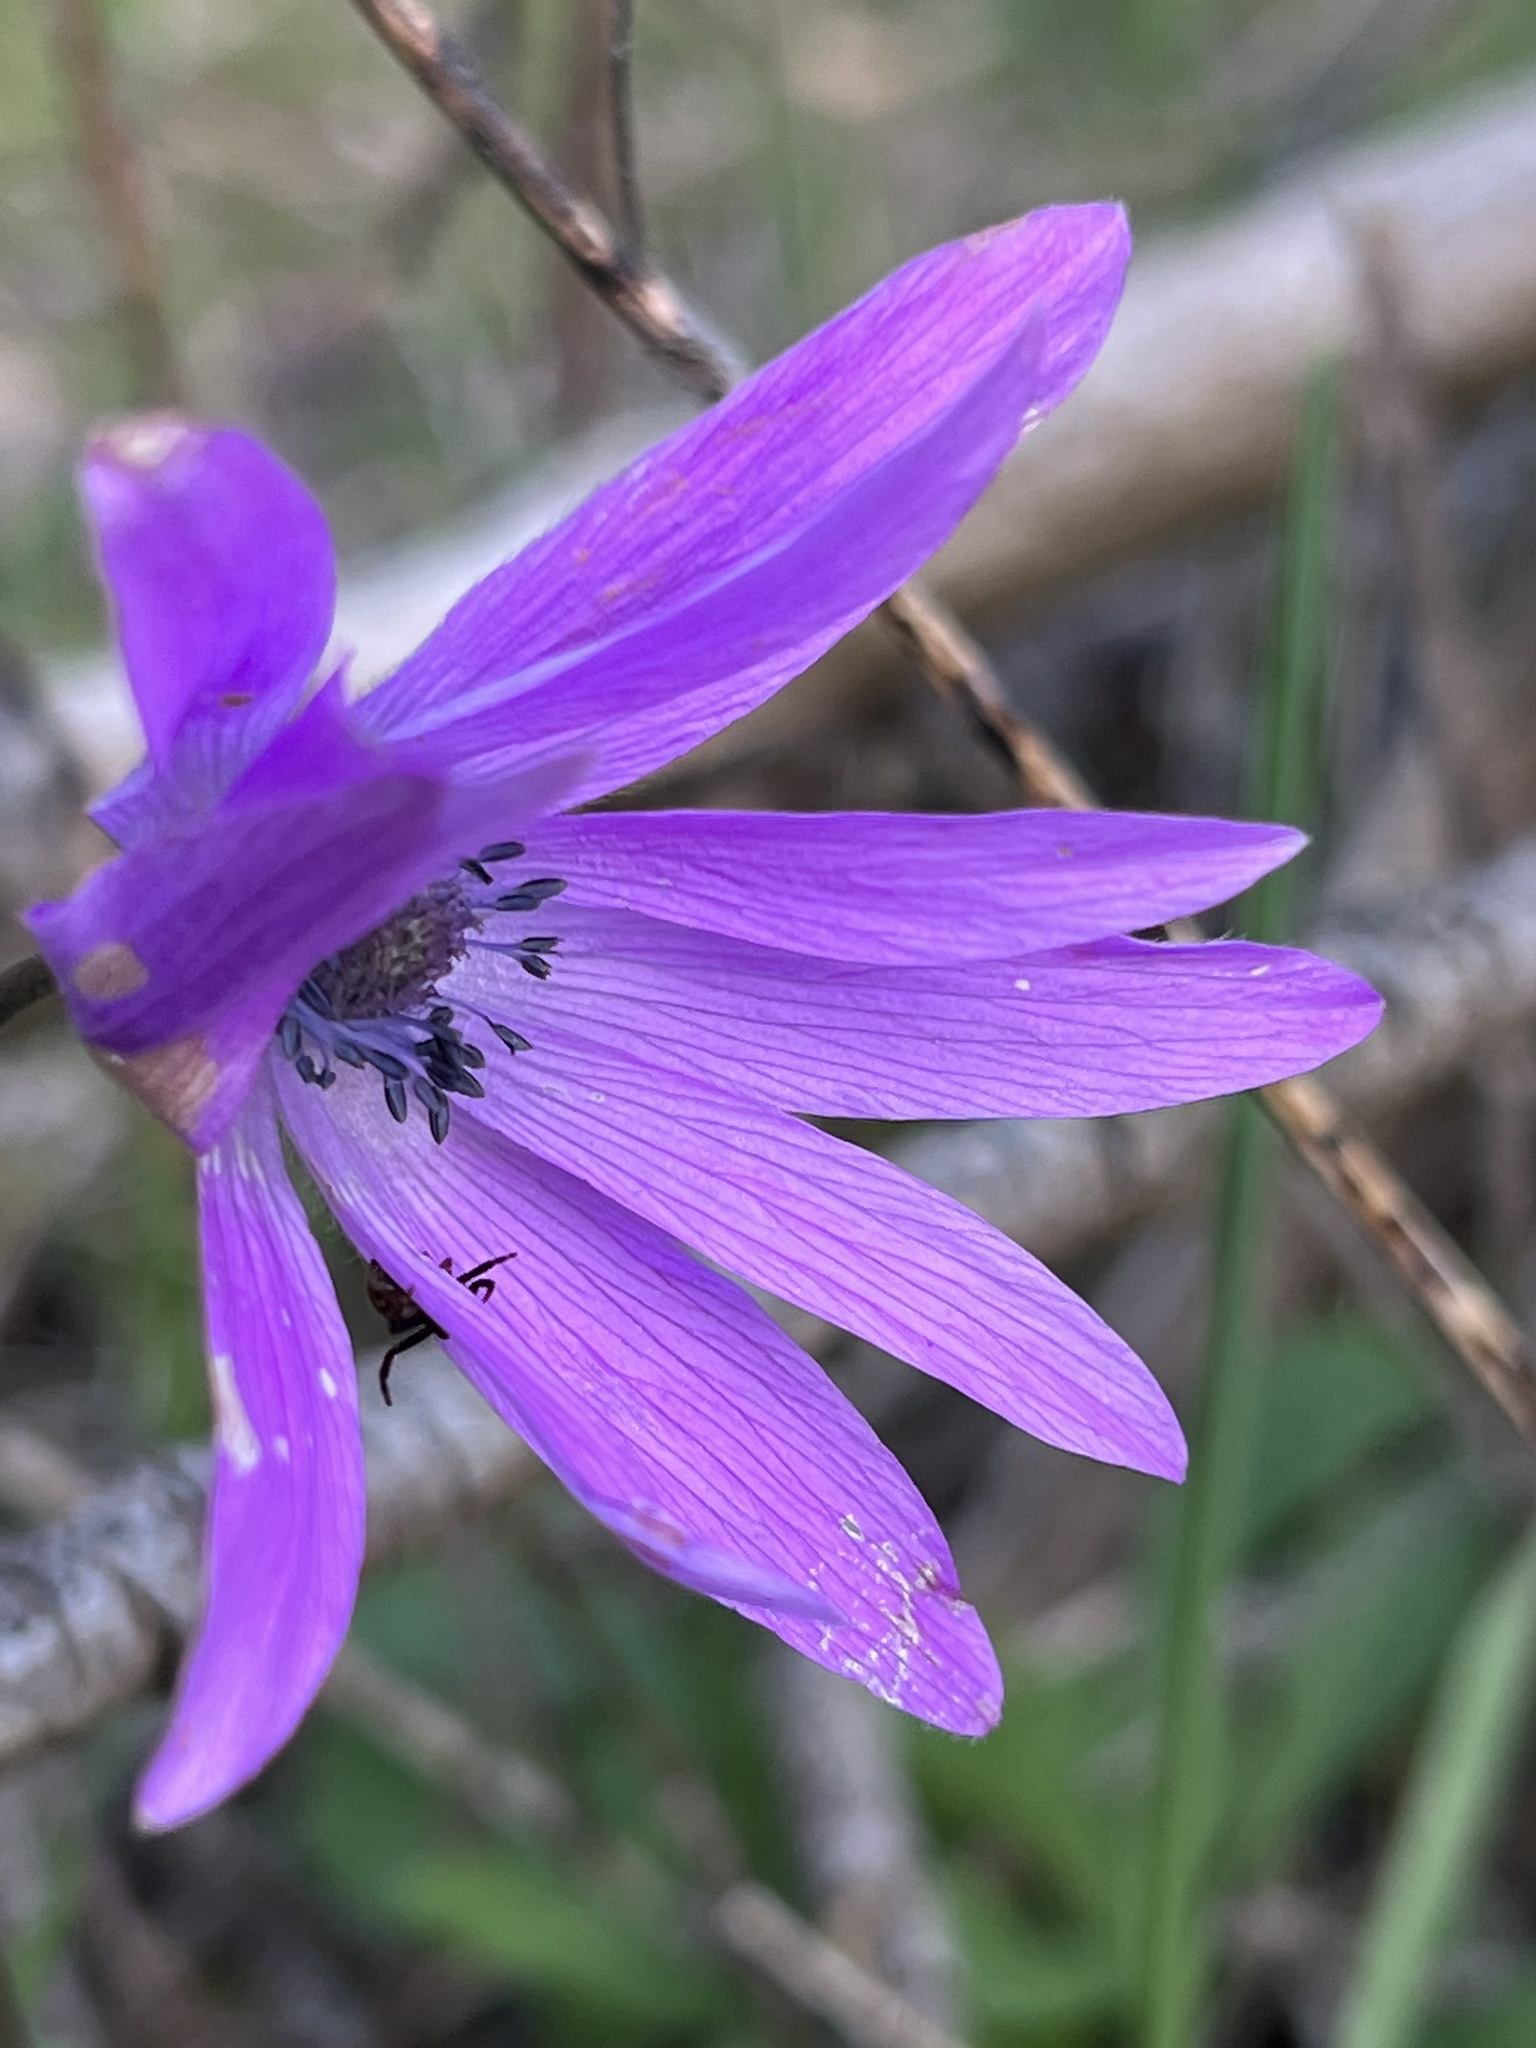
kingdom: Plantae
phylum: Tracheophyta
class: Magnoliopsida
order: Ranunculales
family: Ranunculaceae
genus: Anemone
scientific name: Anemone hortensis
